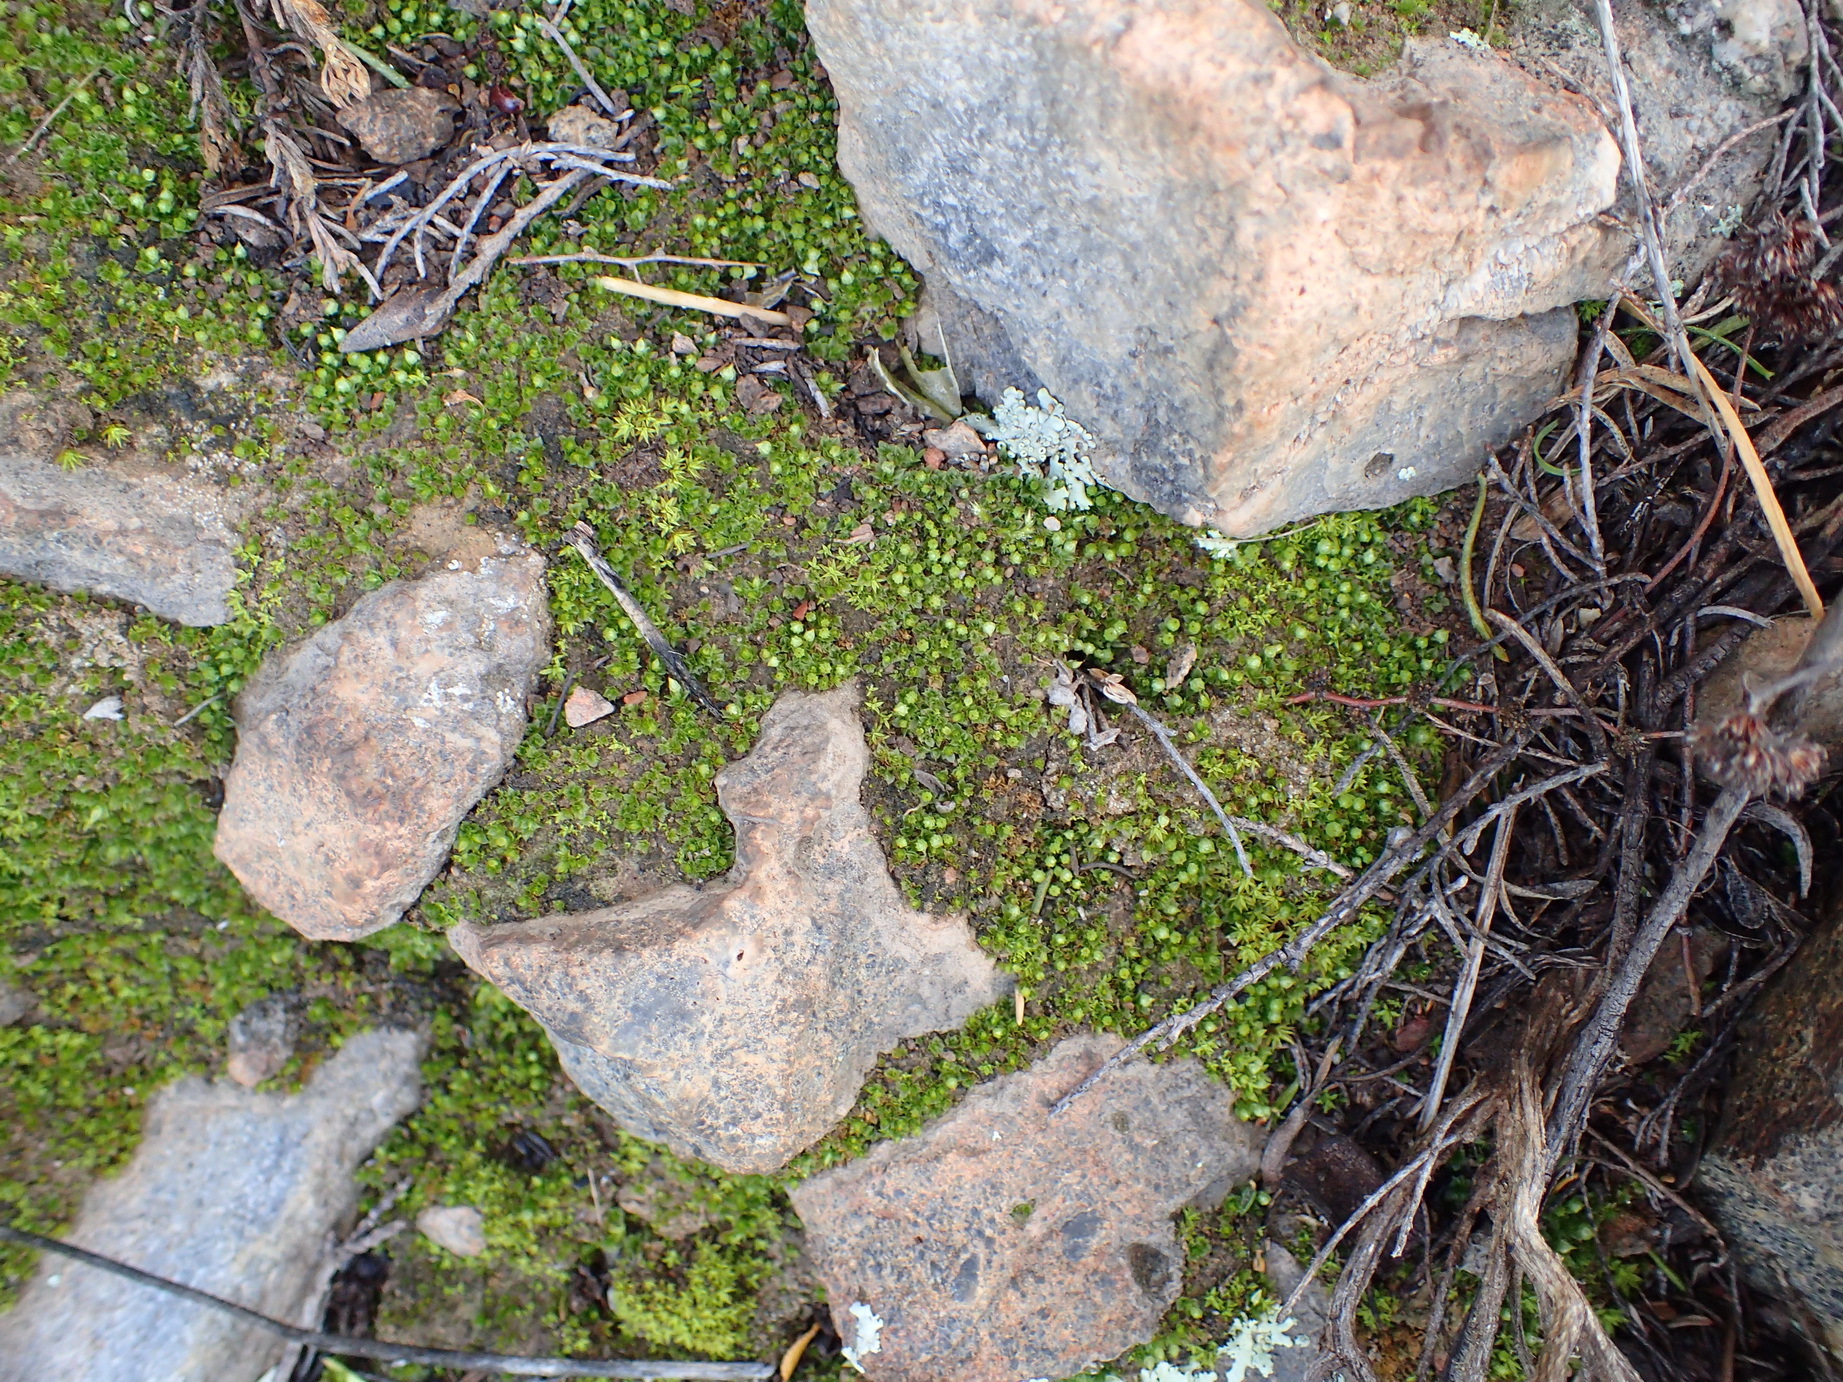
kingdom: Plantae
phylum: Bryophyta
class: Bryopsida
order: Funariales
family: Funariaceae
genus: Goniomitrium
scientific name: Goniomitrium acuminatum
